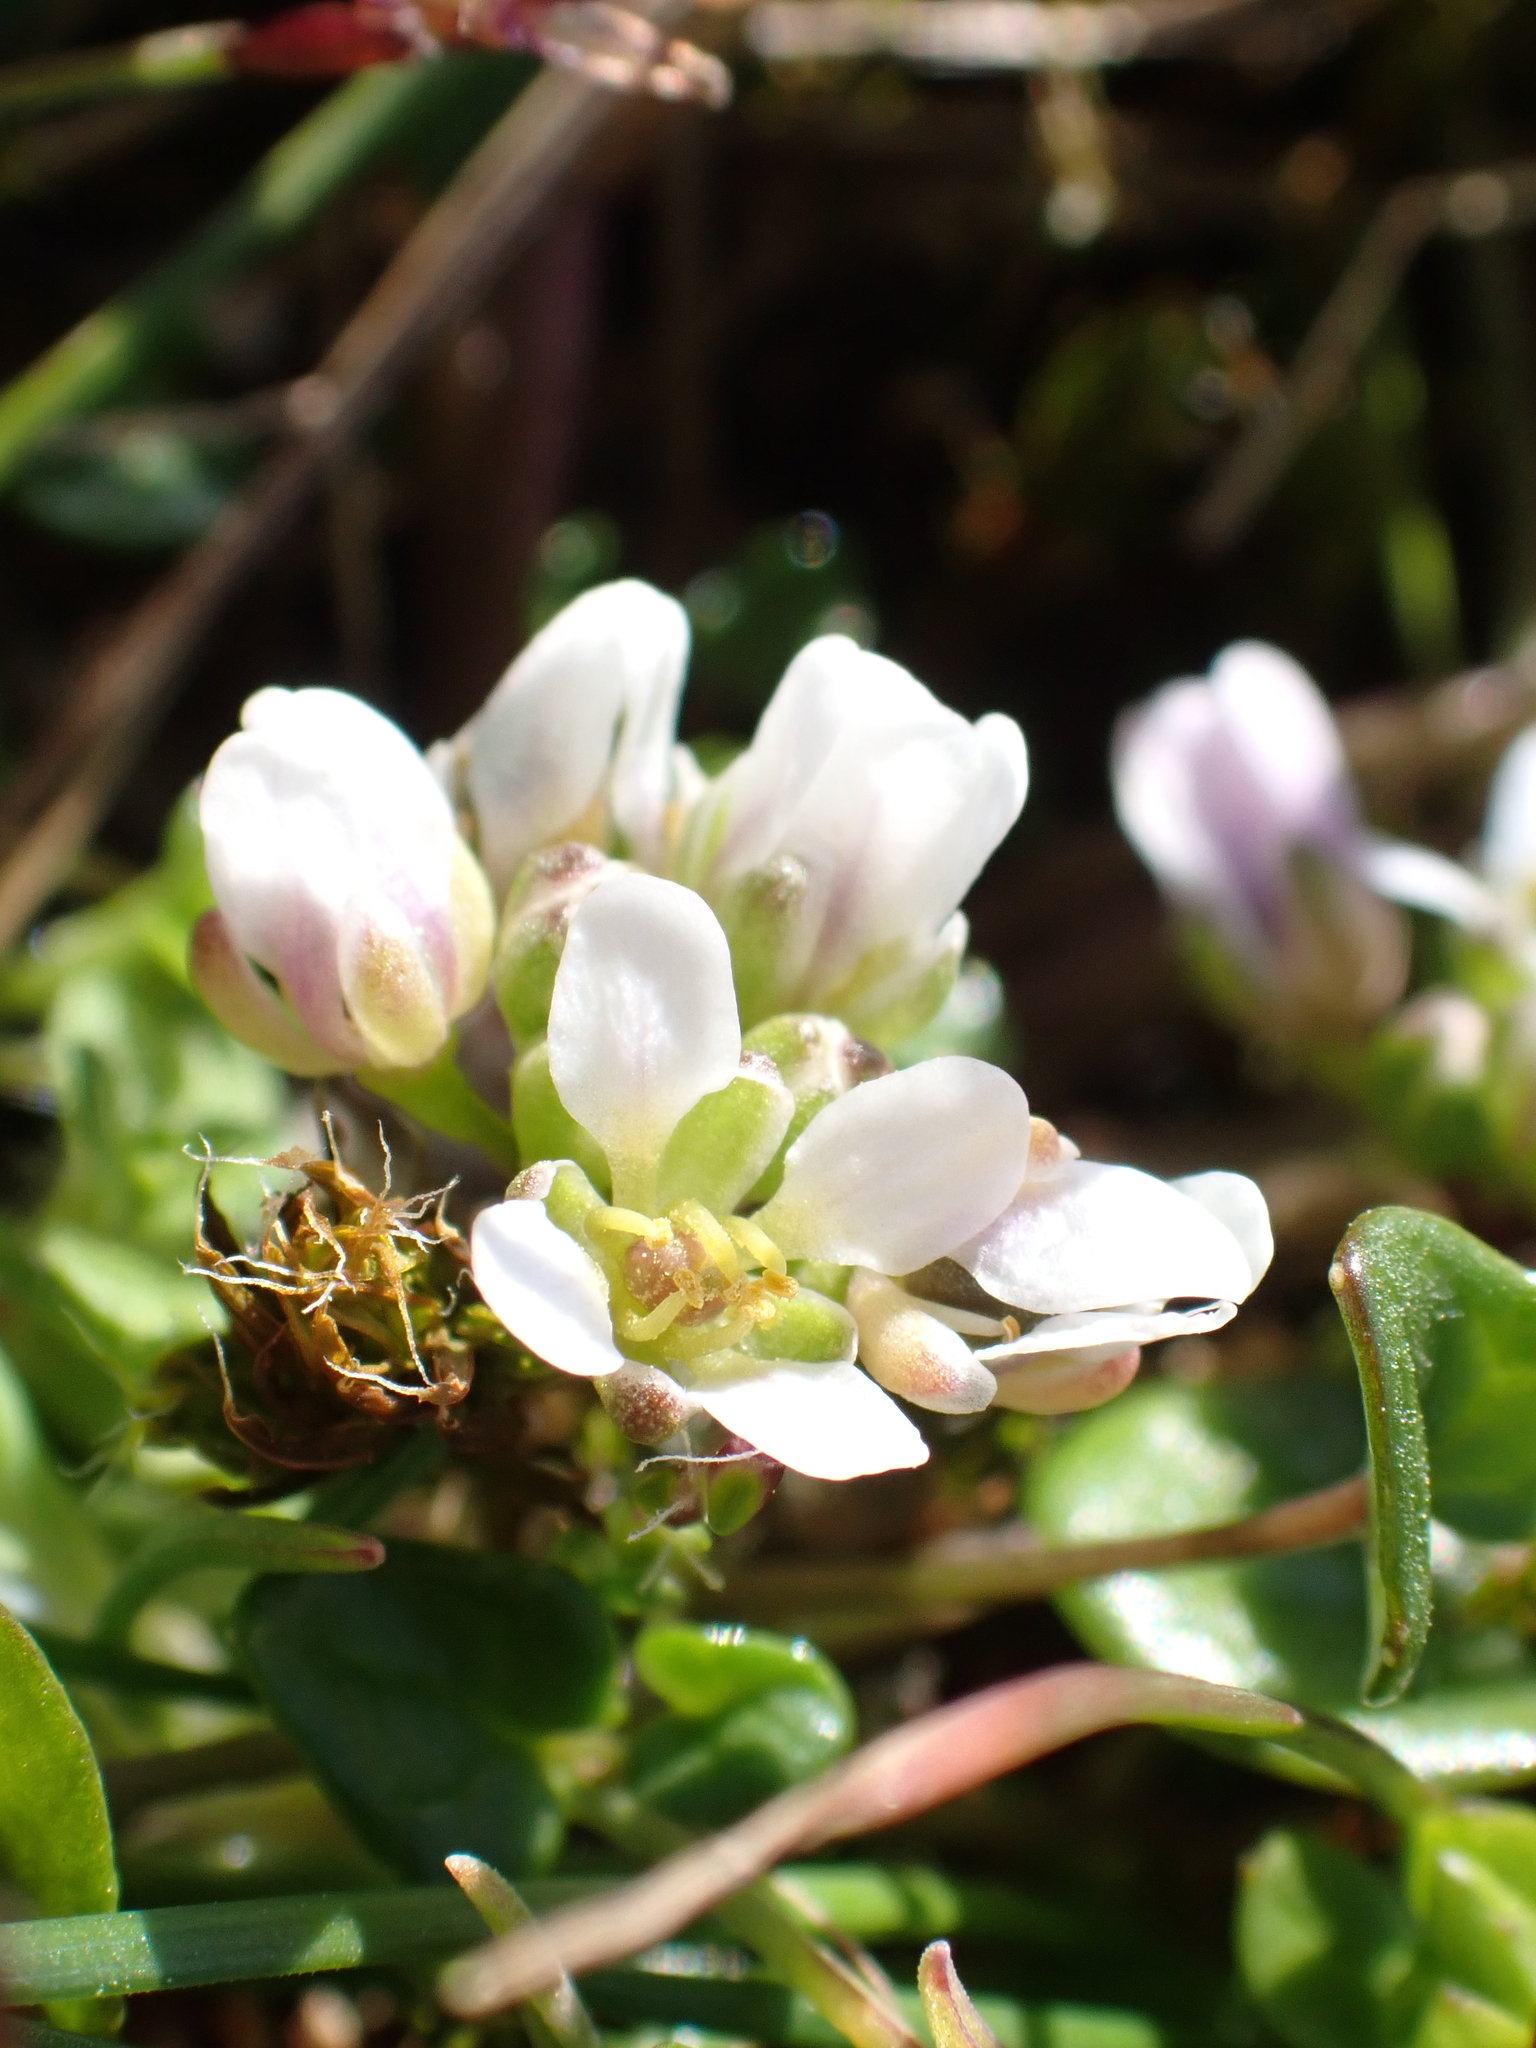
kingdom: Plantae
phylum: Tracheophyta
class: Magnoliopsida
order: Brassicales
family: Brassicaceae
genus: Cochlearia
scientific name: Cochlearia danica
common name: Early scurvygrass
